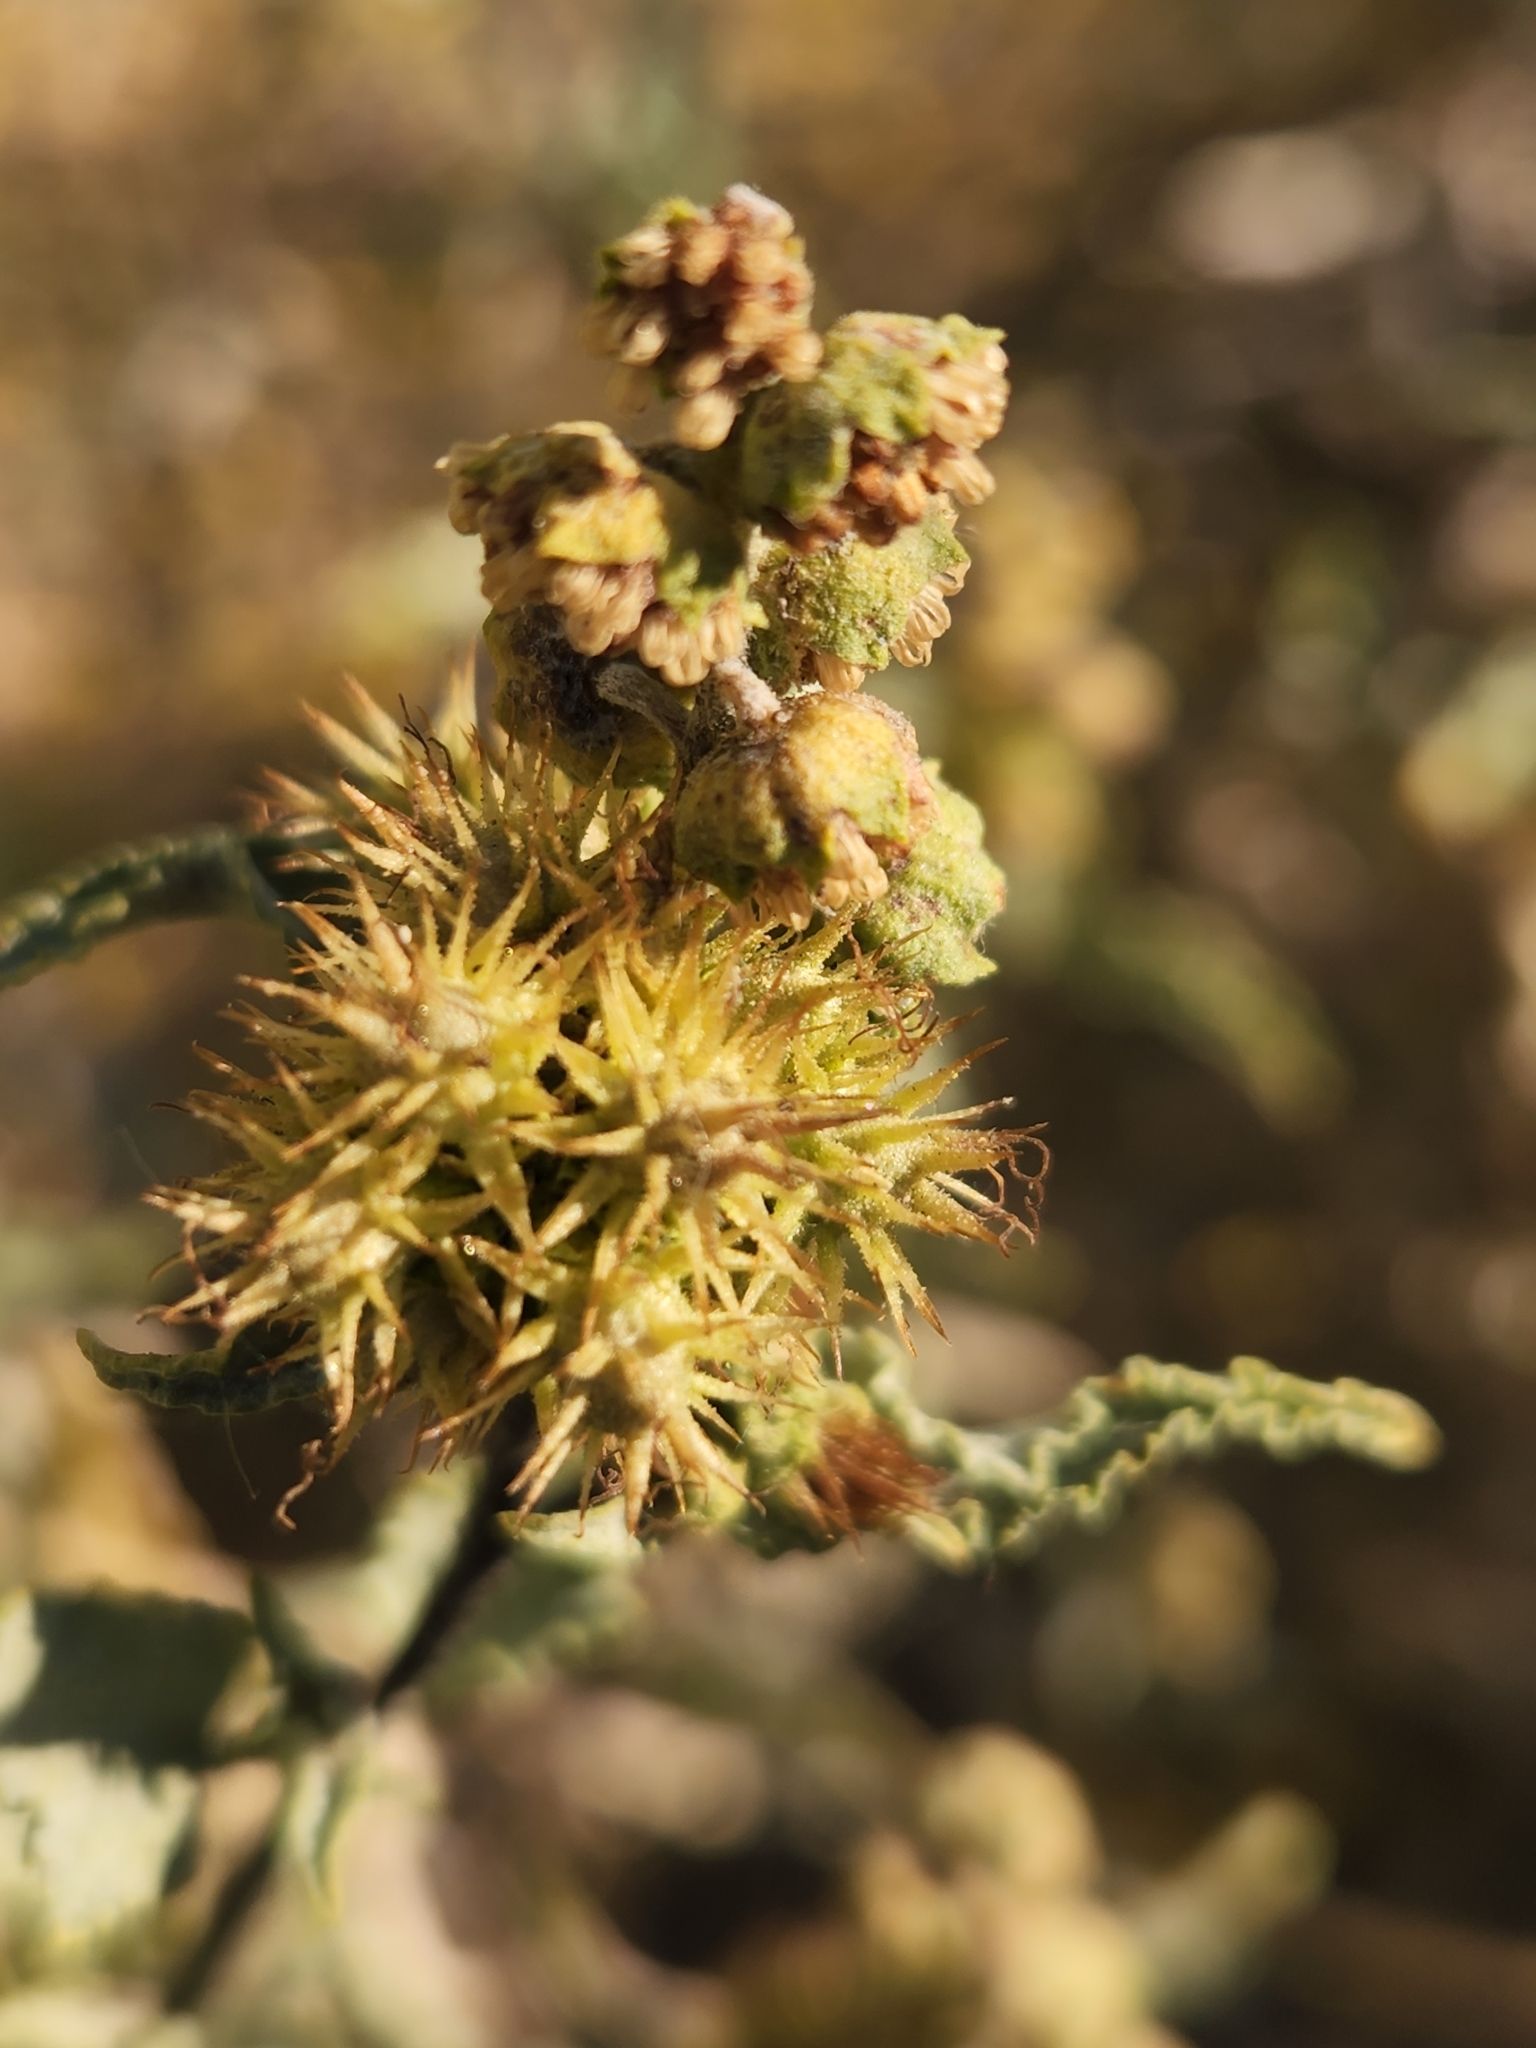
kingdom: Plantae
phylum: Tracheophyta
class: Magnoliopsida
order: Asterales
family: Asteraceae
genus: Ambrosia
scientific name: Ambrosia deltoidea
